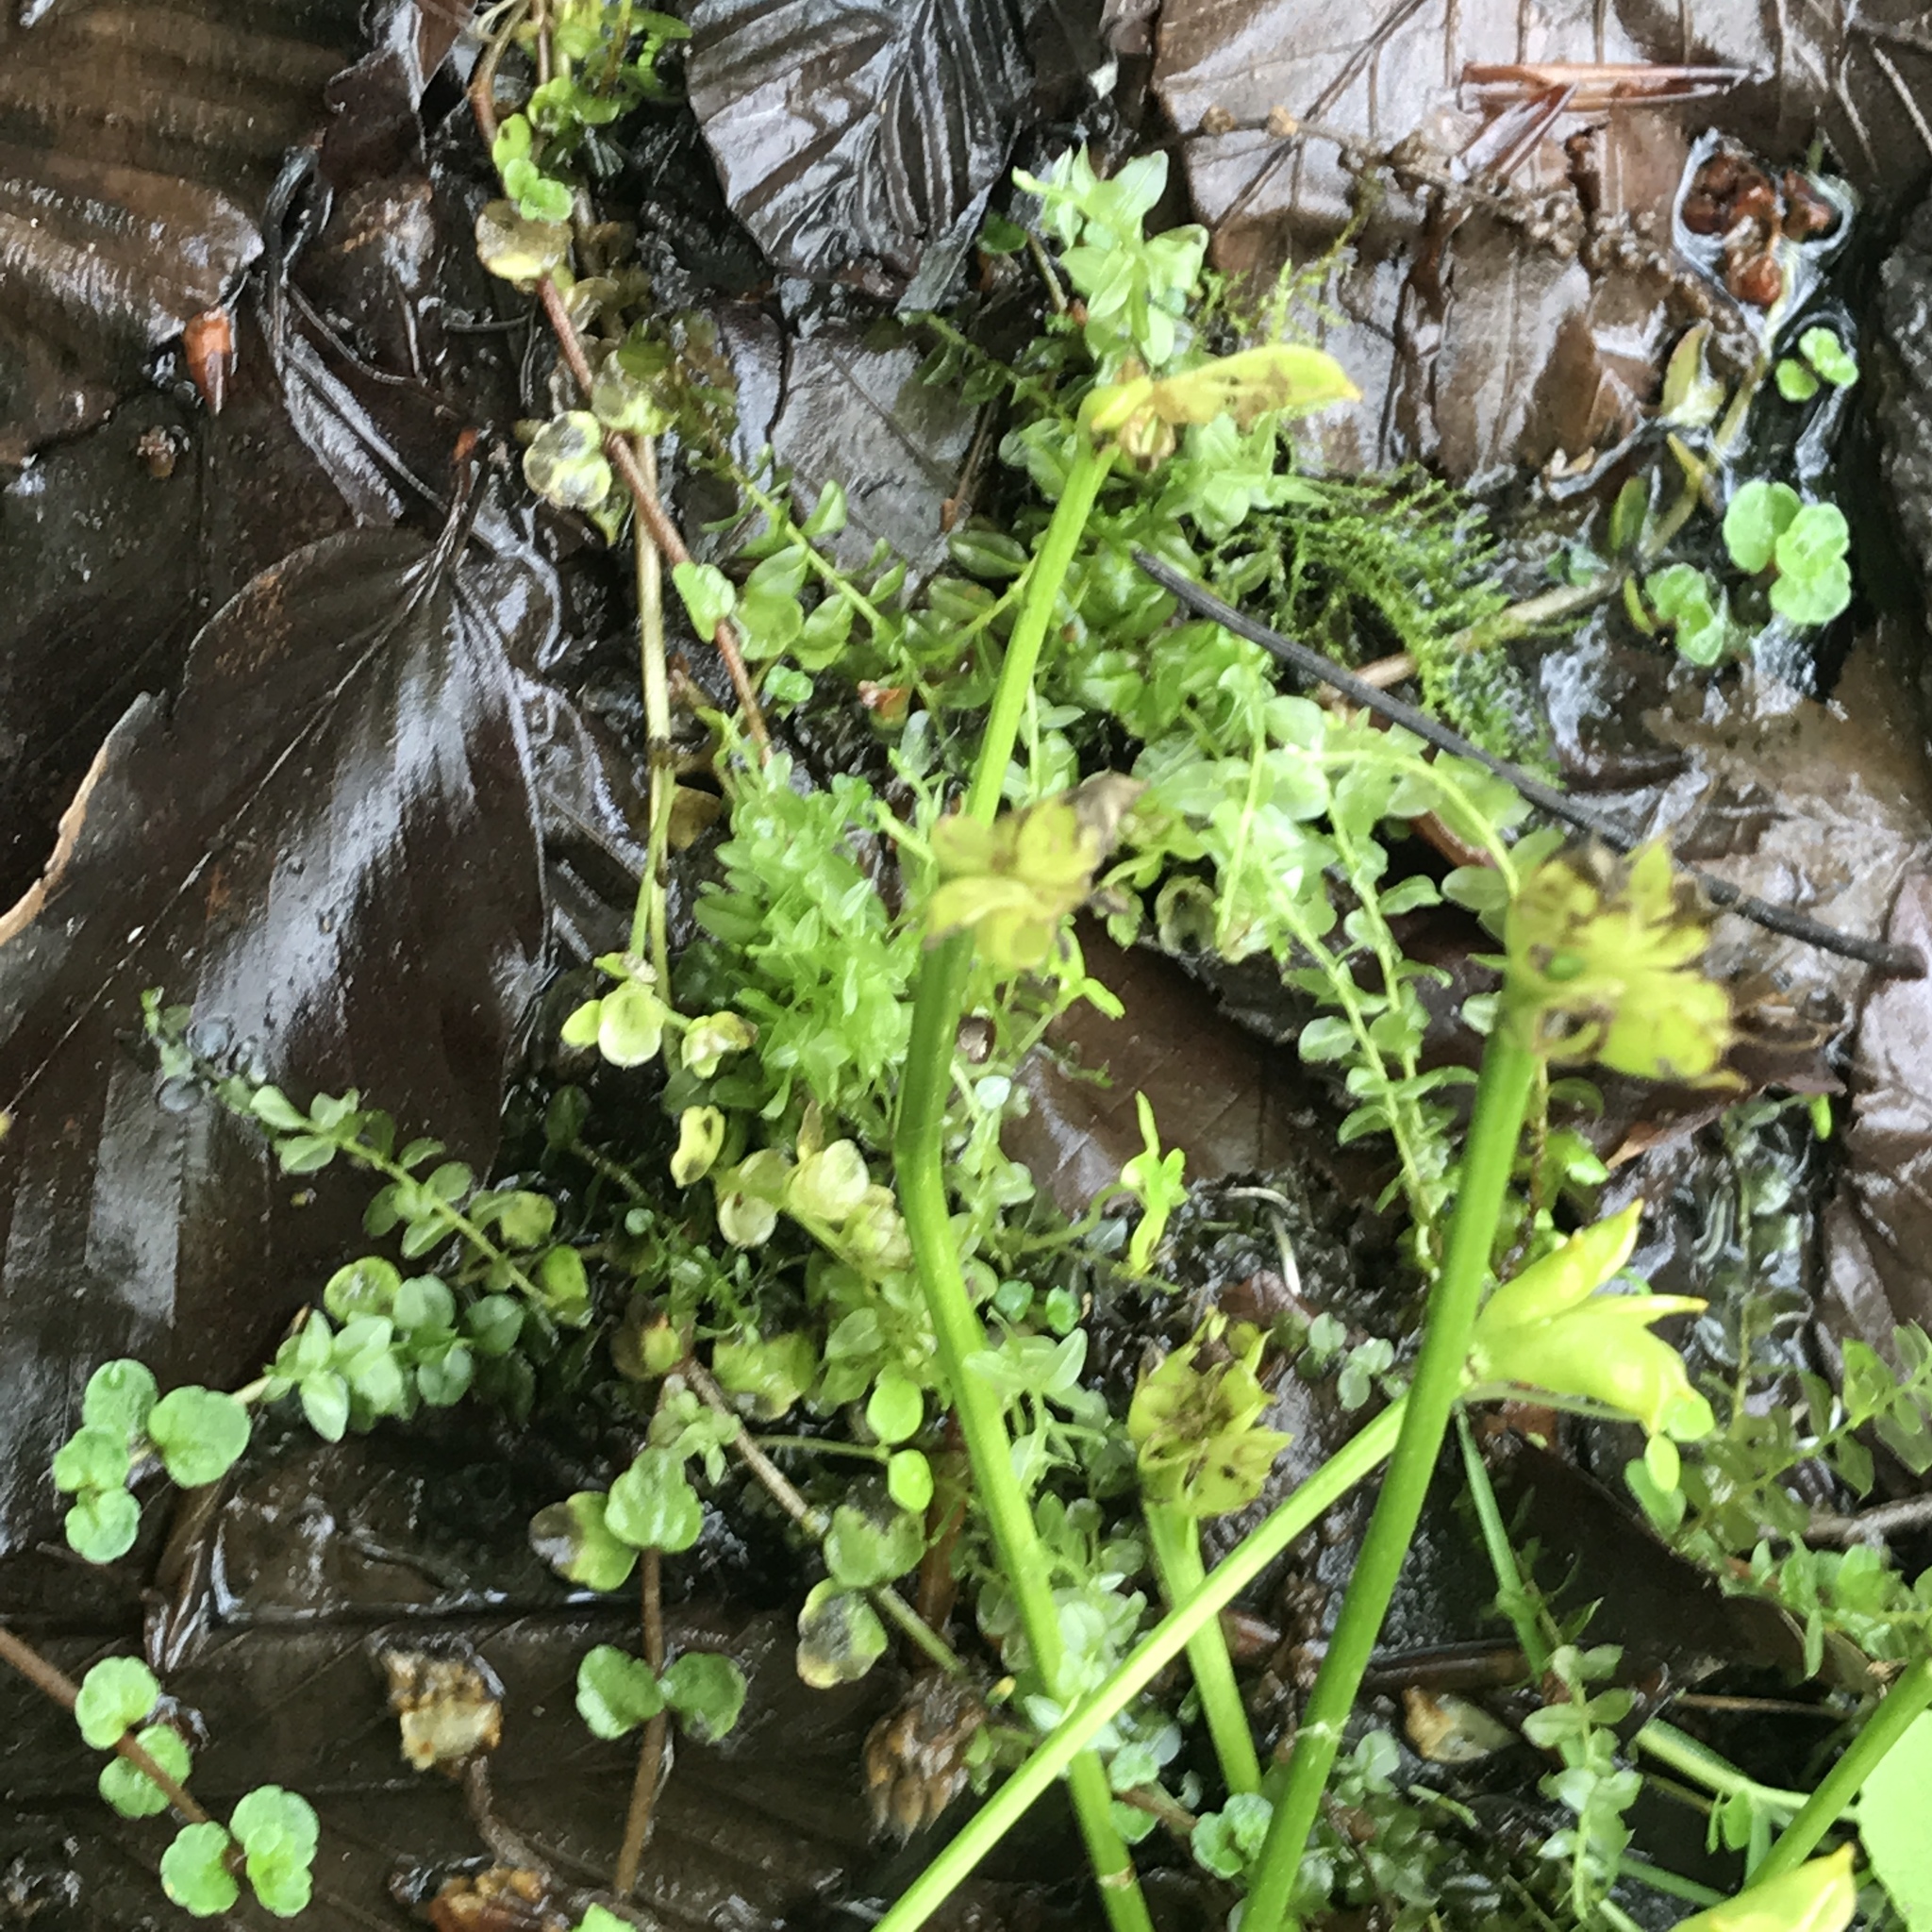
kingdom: Plantae
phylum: Tracheophyta
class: Magnoliopsida
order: Saxifragales
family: Saxifragaceae
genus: Chrysosplenium
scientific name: Chrysosplenium americanum
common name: American golden-saxifrage
